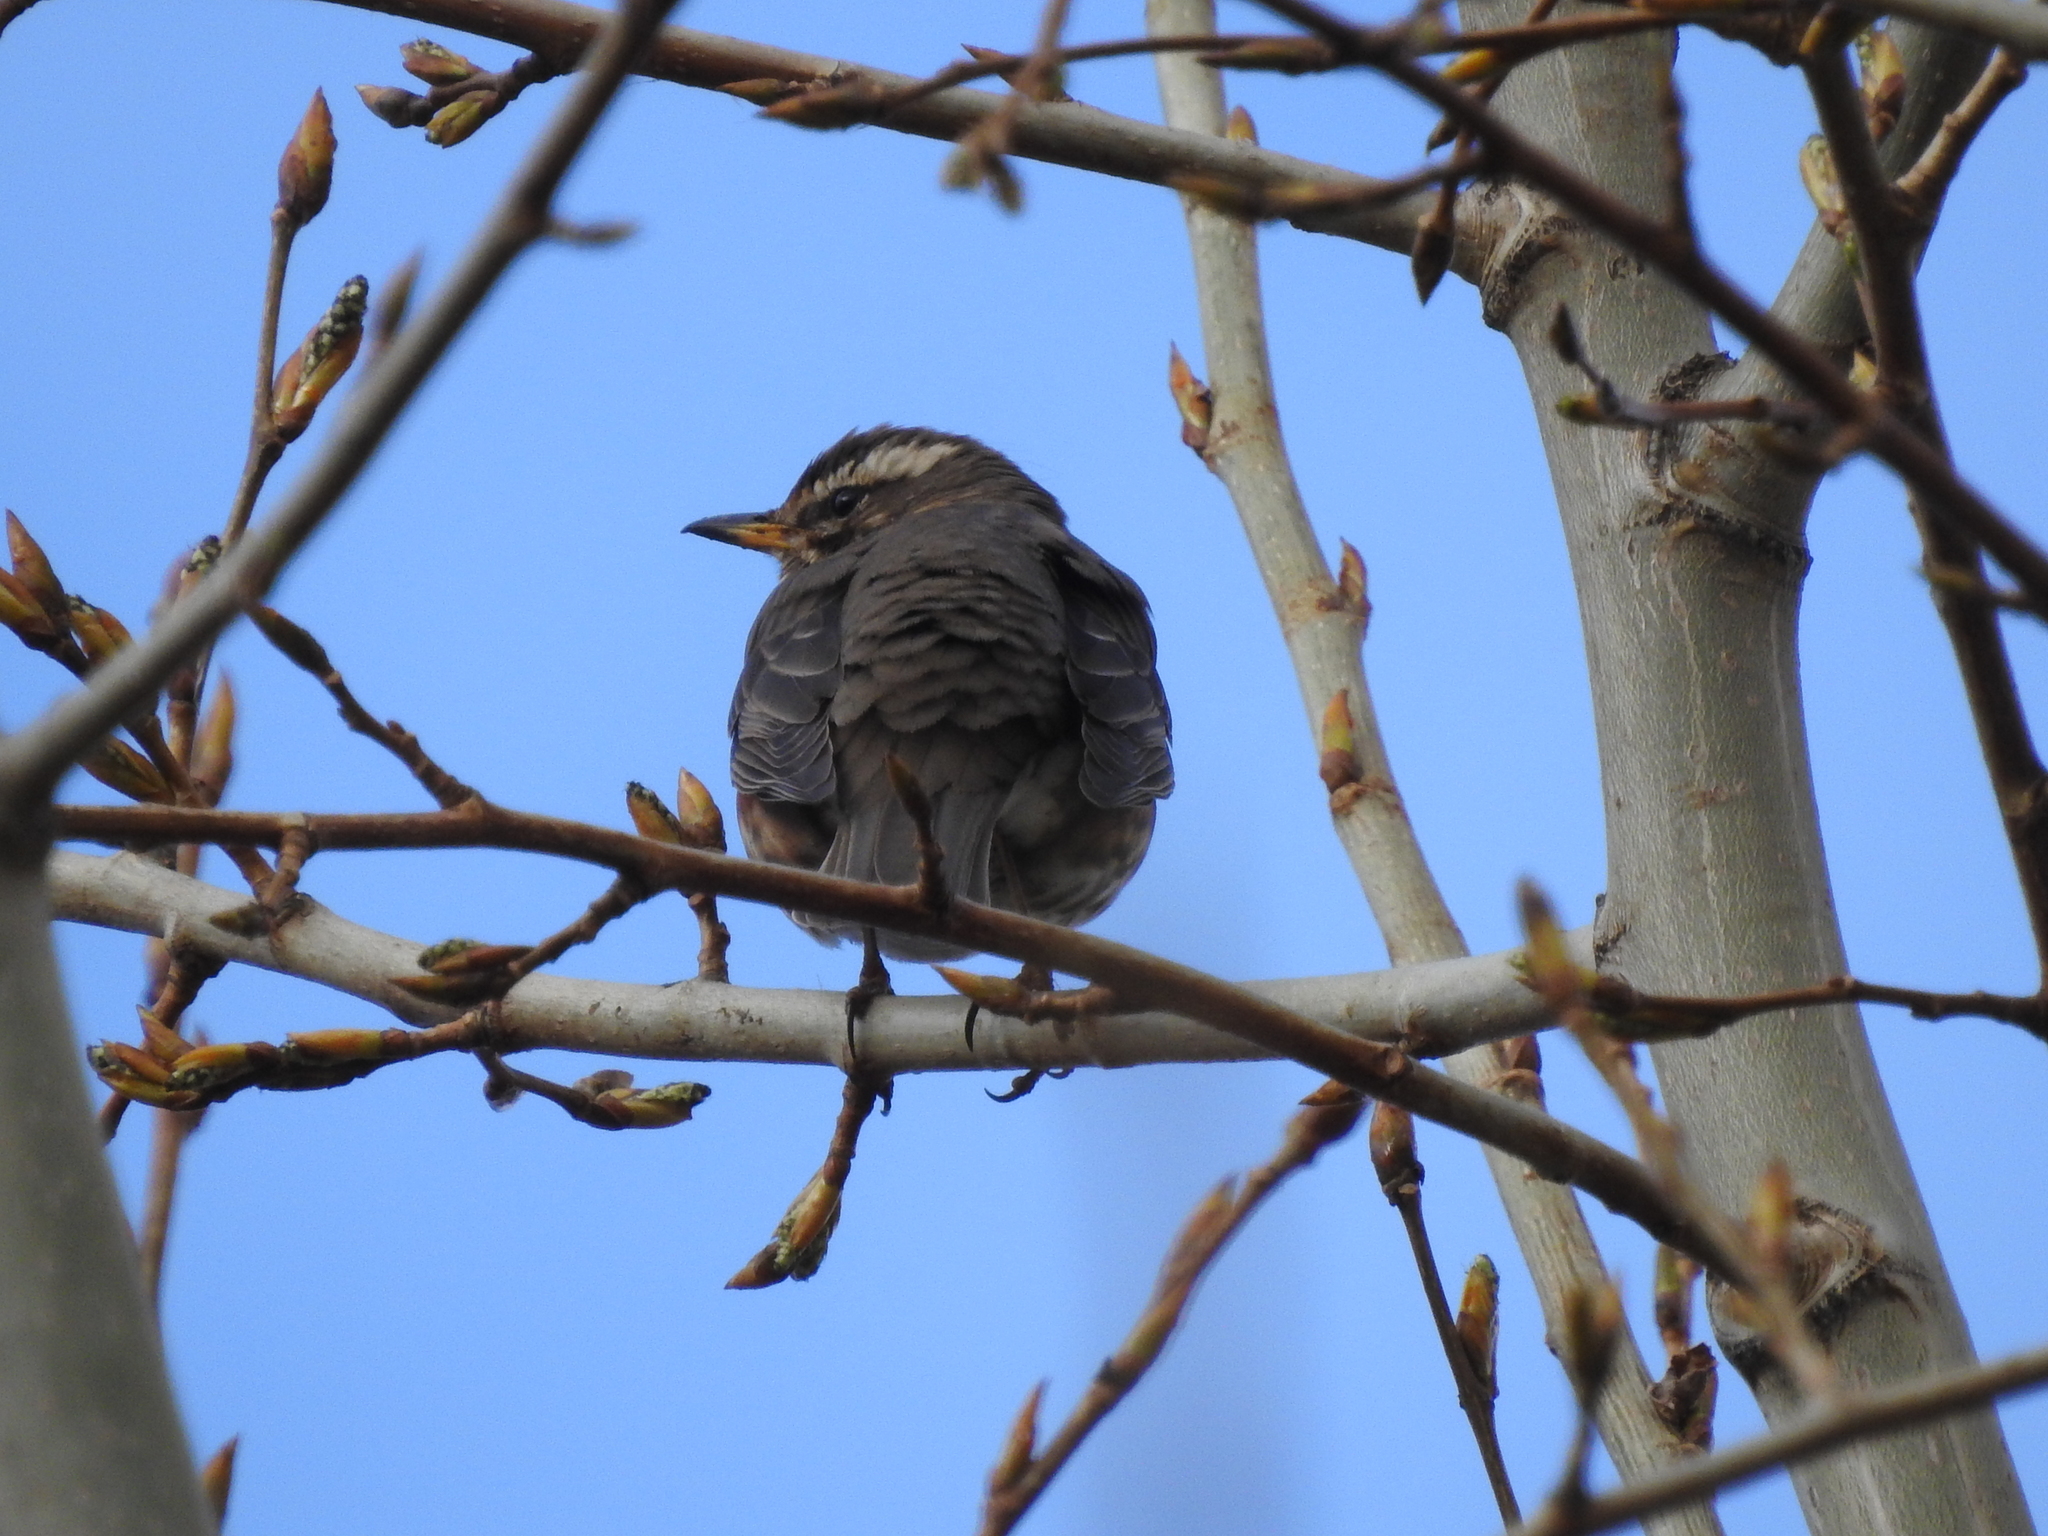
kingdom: Animalia
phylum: Chordata
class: Aves
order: Passeriformes
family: Turdidae
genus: Turdus
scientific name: Turdus iliacus
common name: Redwing
